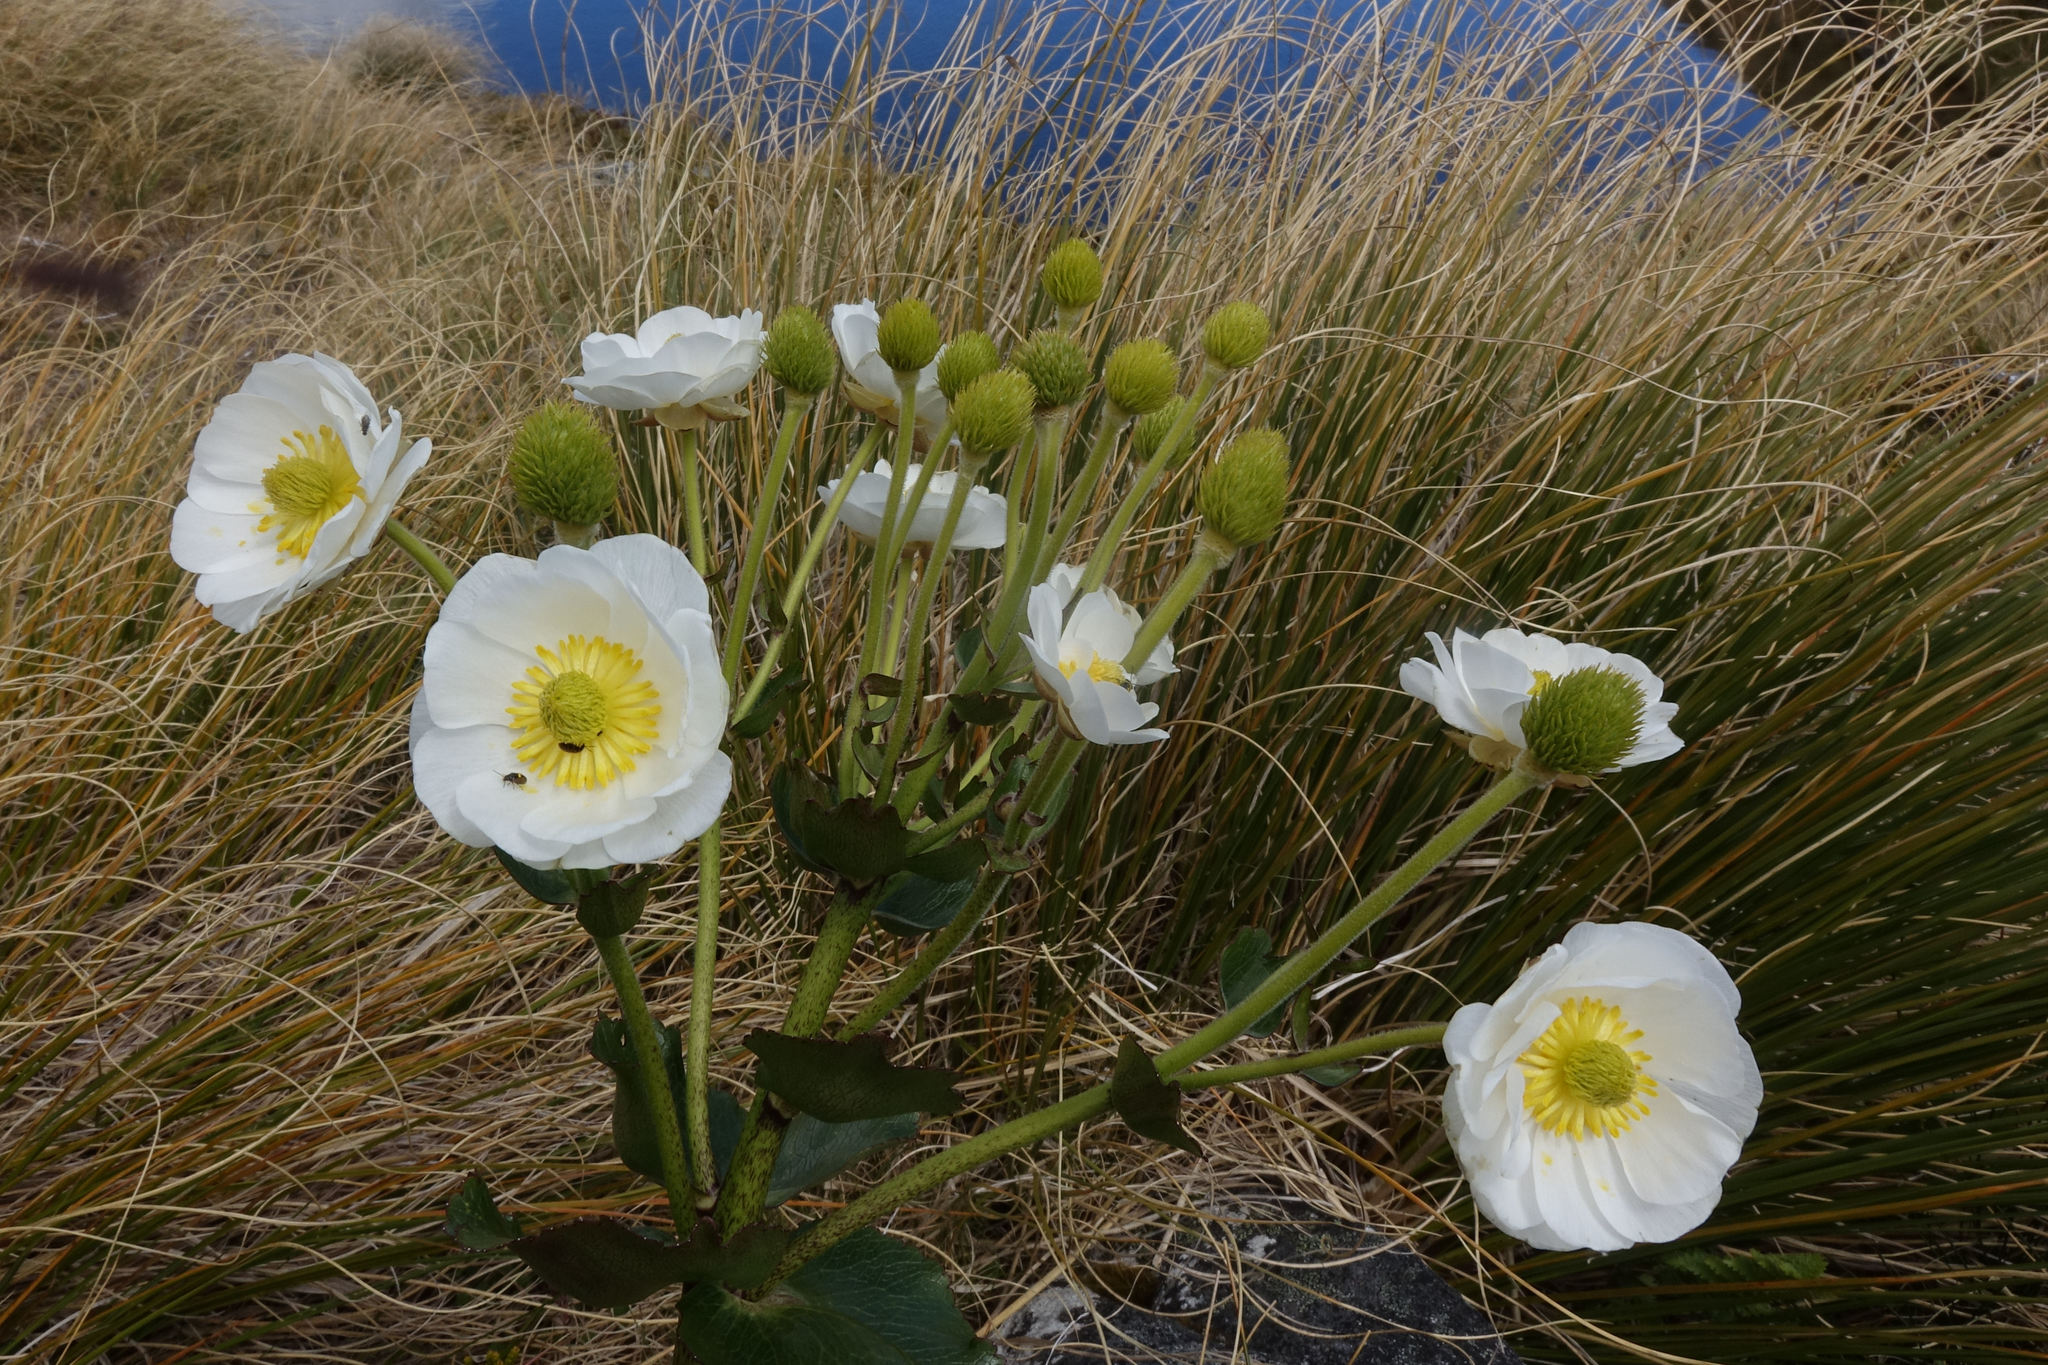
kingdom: Plantae
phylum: Tracheophyta
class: Magnoliopsida
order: Ranunculales
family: Ranunculaceae
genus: Ranunculus
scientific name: Ranunculus lyallii
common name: Mountain-lily
